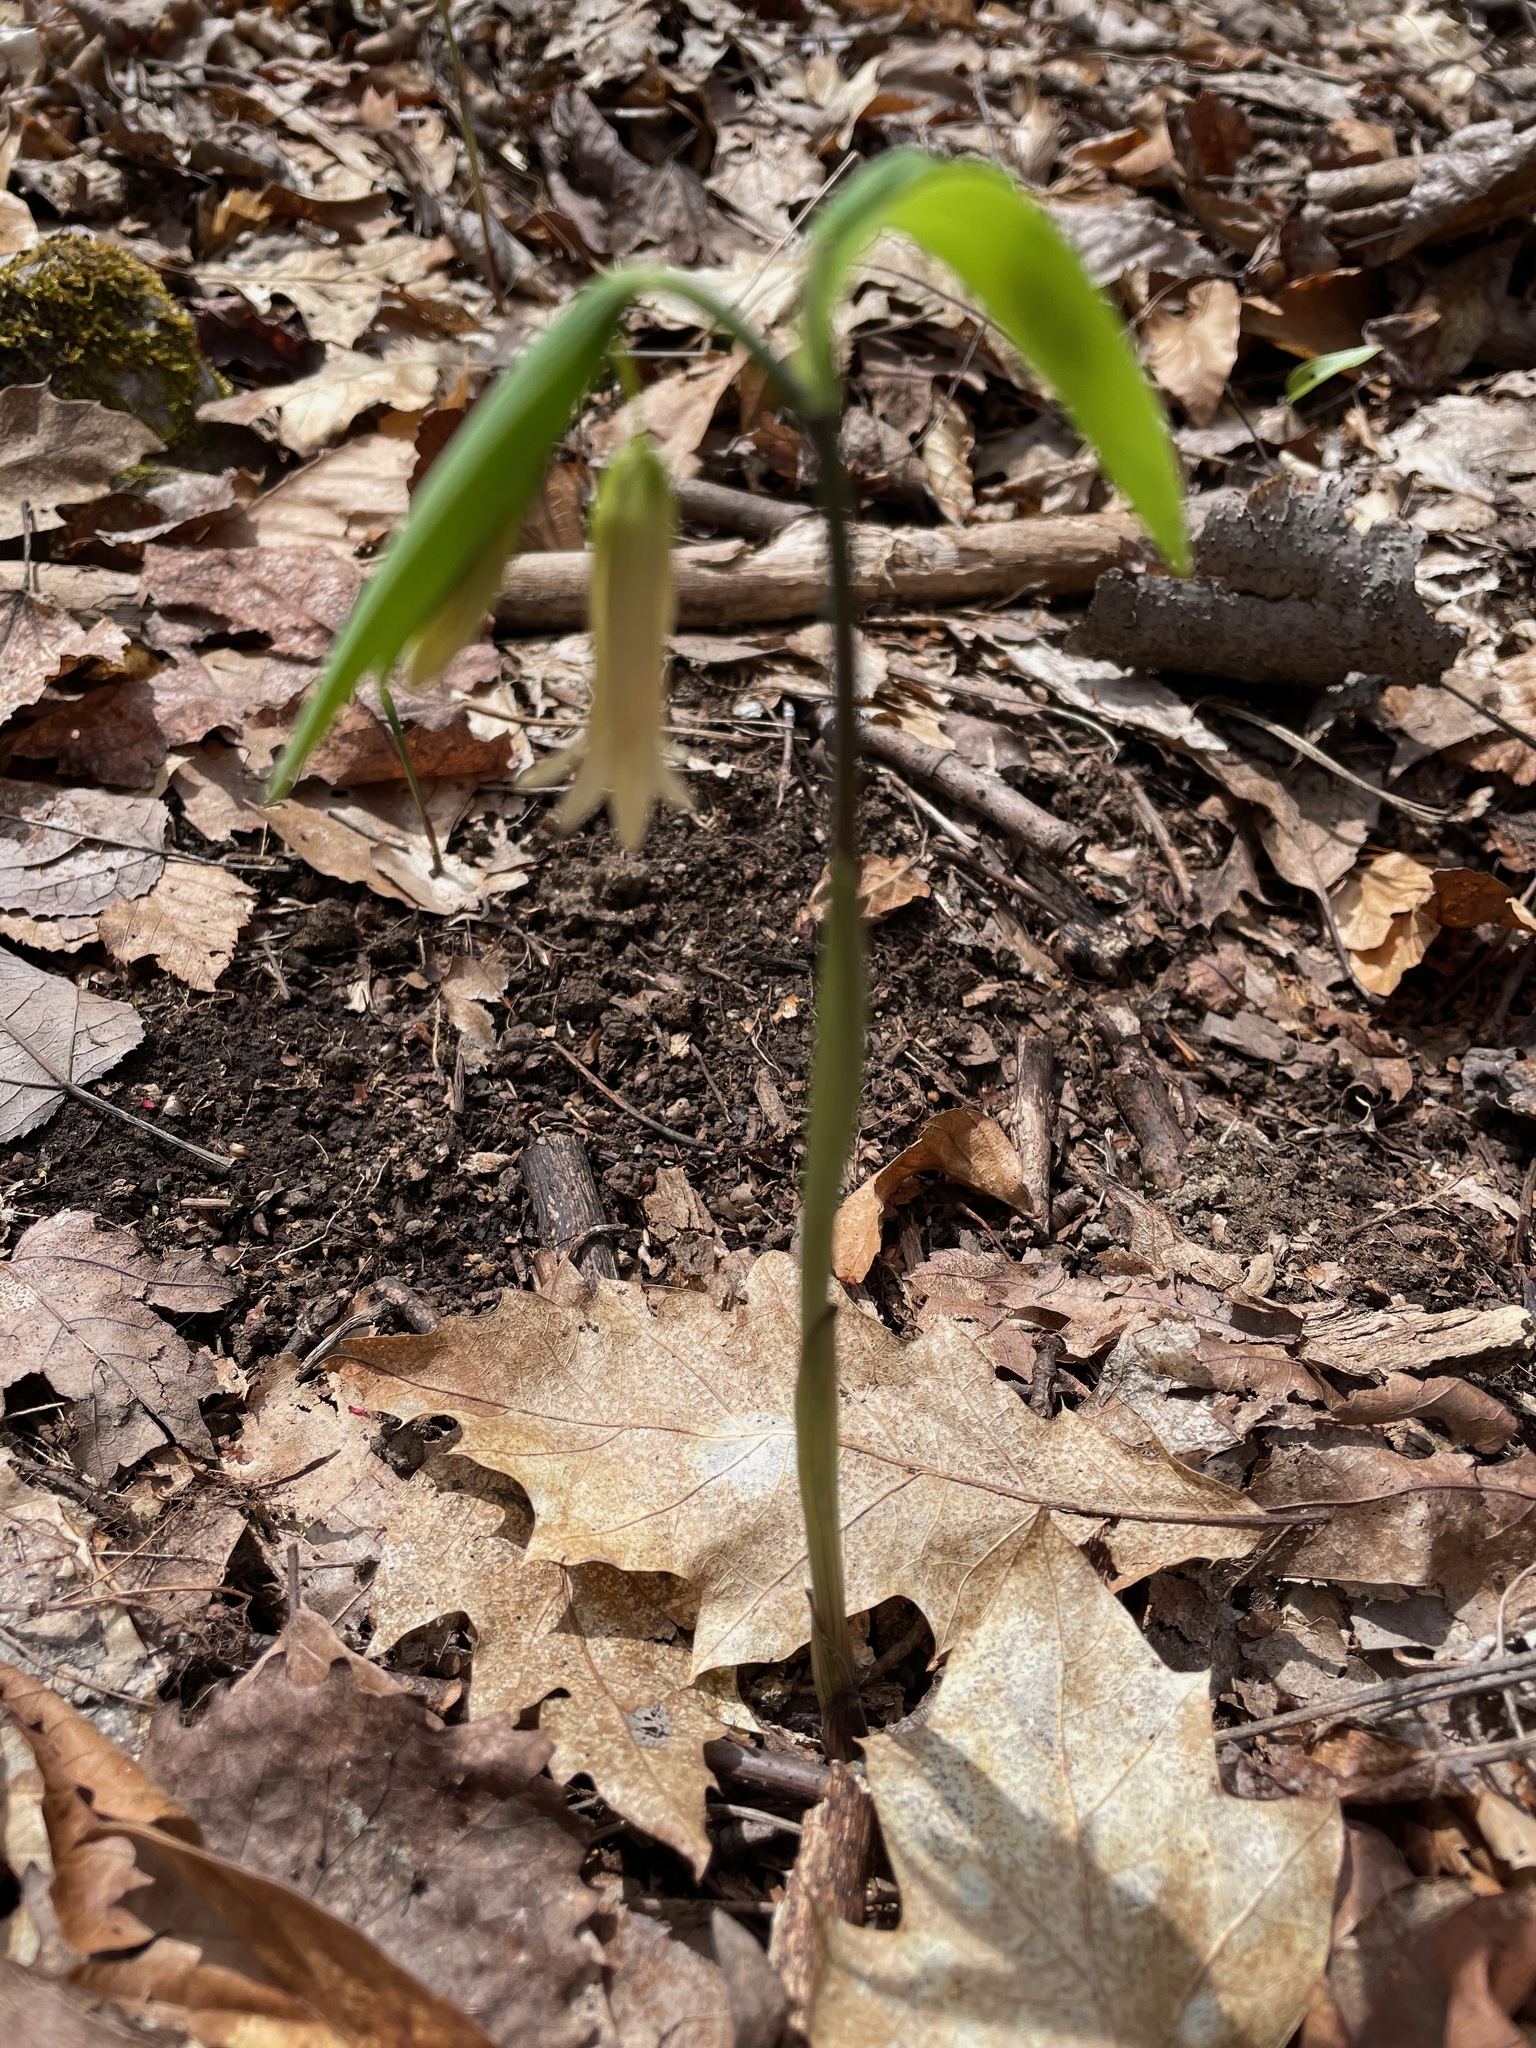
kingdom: Plantae
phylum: Tracheophyta
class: Liliopsida
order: Liliales
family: Colchicaceae
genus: Uvularia
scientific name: Uvularia sessilifolia
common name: Straw-lily
